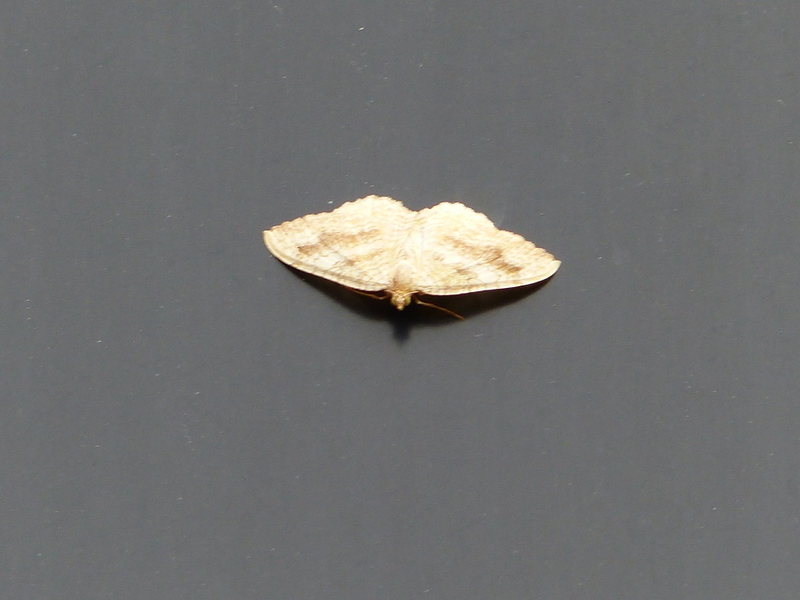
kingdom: Animalia
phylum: Arthropoda
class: Insecta
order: Lepidoptera
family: Geometridae
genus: Camptogramma
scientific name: Camptogramma bilineata
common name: Yellow shell
